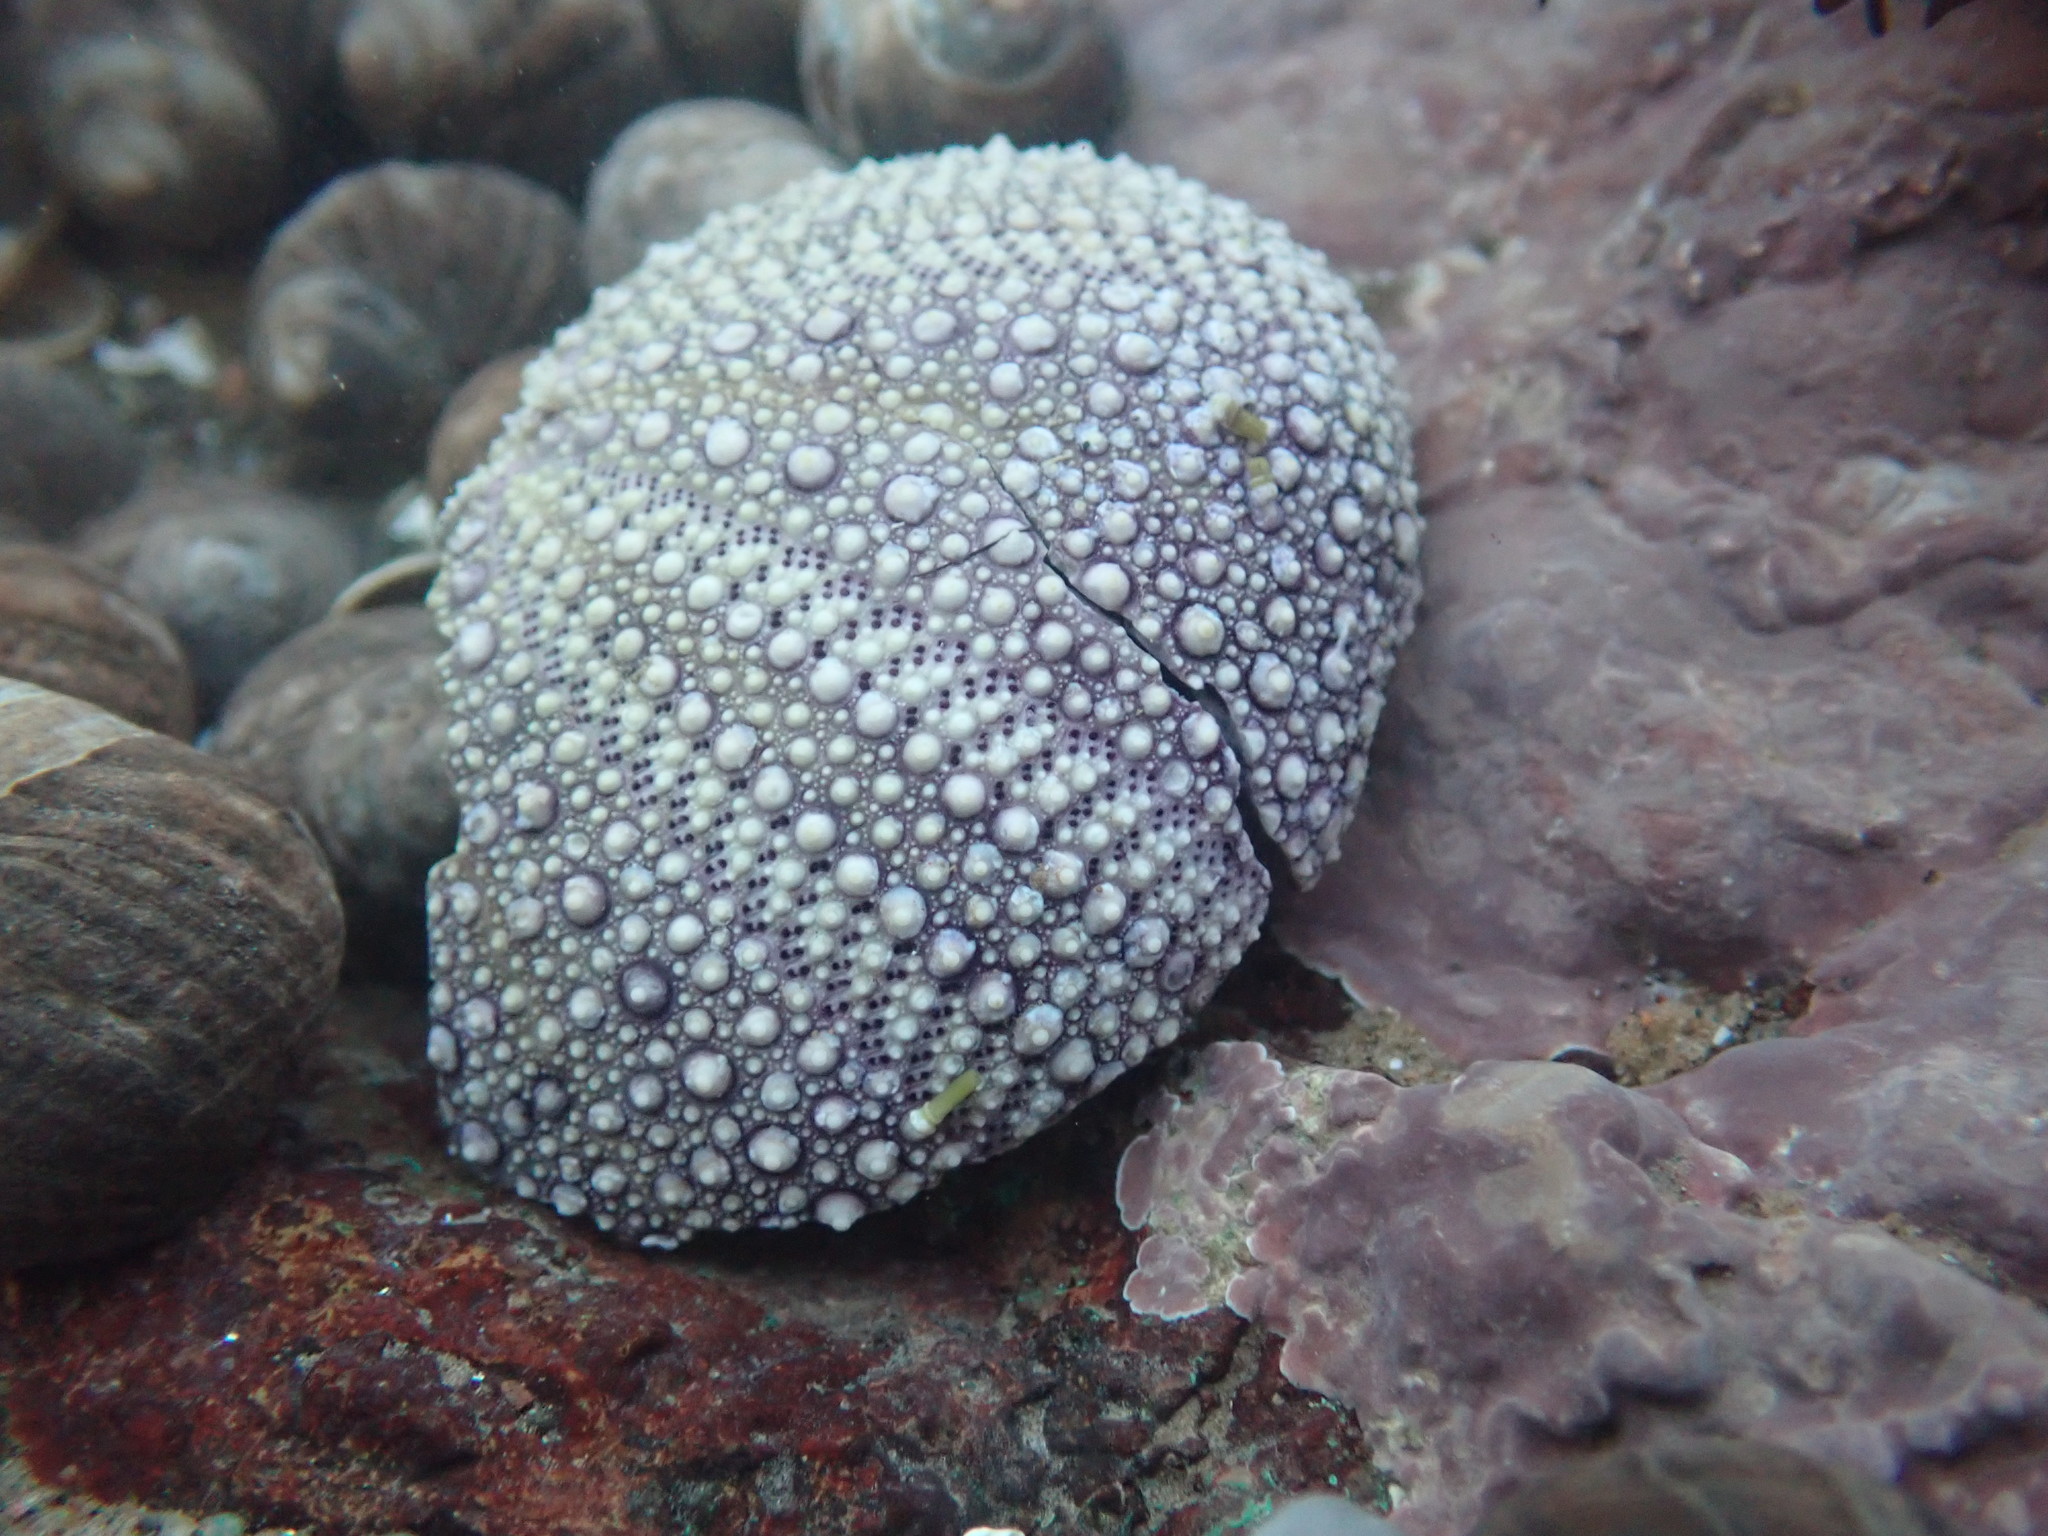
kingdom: Animalia
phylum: Echinodermata
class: Echinoidea
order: Camarodonta
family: Strongylocentrotidae
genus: Strongylocentrotus
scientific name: Strongylocentrotus droebachiensis
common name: Northern sea urchin
